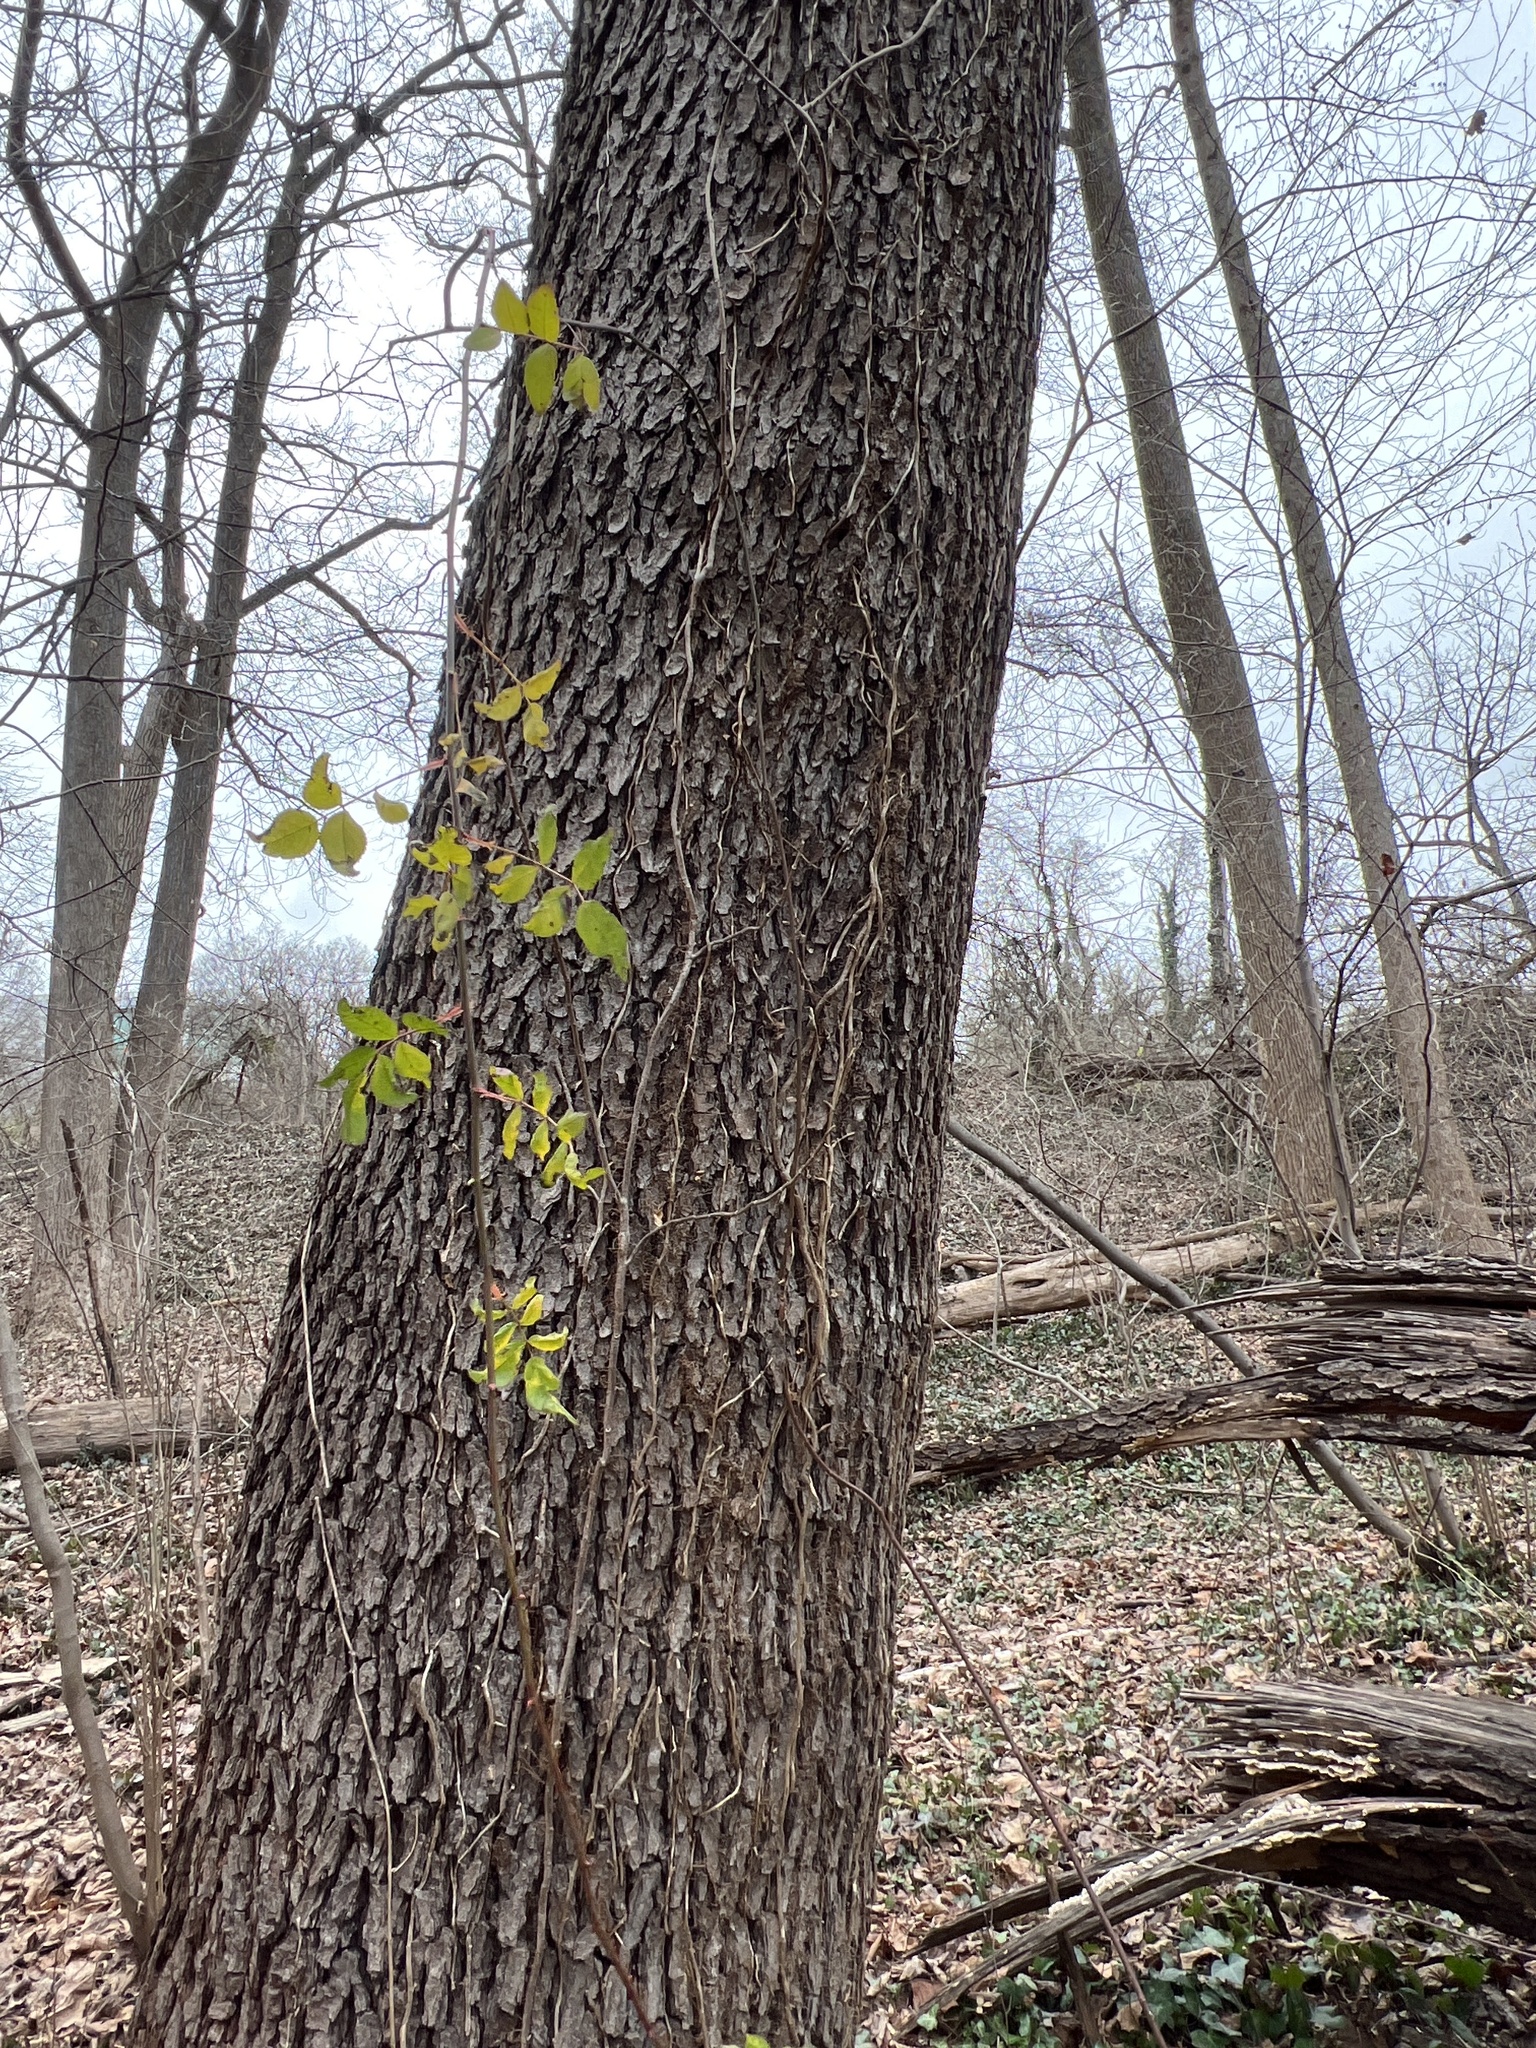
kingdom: Plantae
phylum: Tracheophyta
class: Magnoliopsida
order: Rosales
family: Rosaceae
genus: Rosa
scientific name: Rosa multiflora
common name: Multiflora rose
